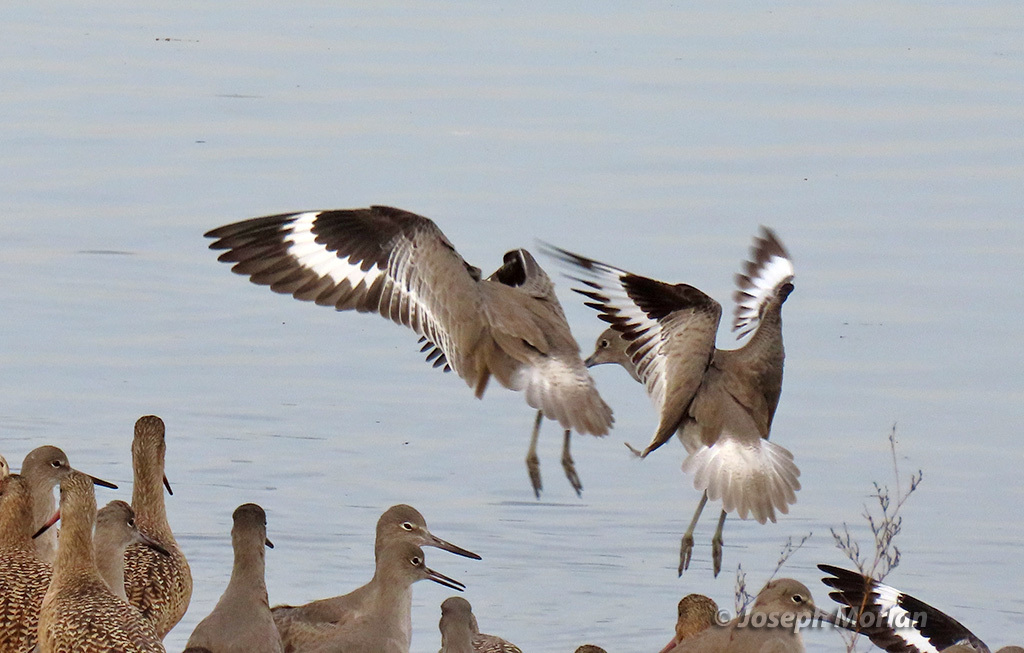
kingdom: Animalia
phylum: Chordata
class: Aves
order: Charadriiformes
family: Scolopacidae
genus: Tringa
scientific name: Tringa semipalmata
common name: Willet
